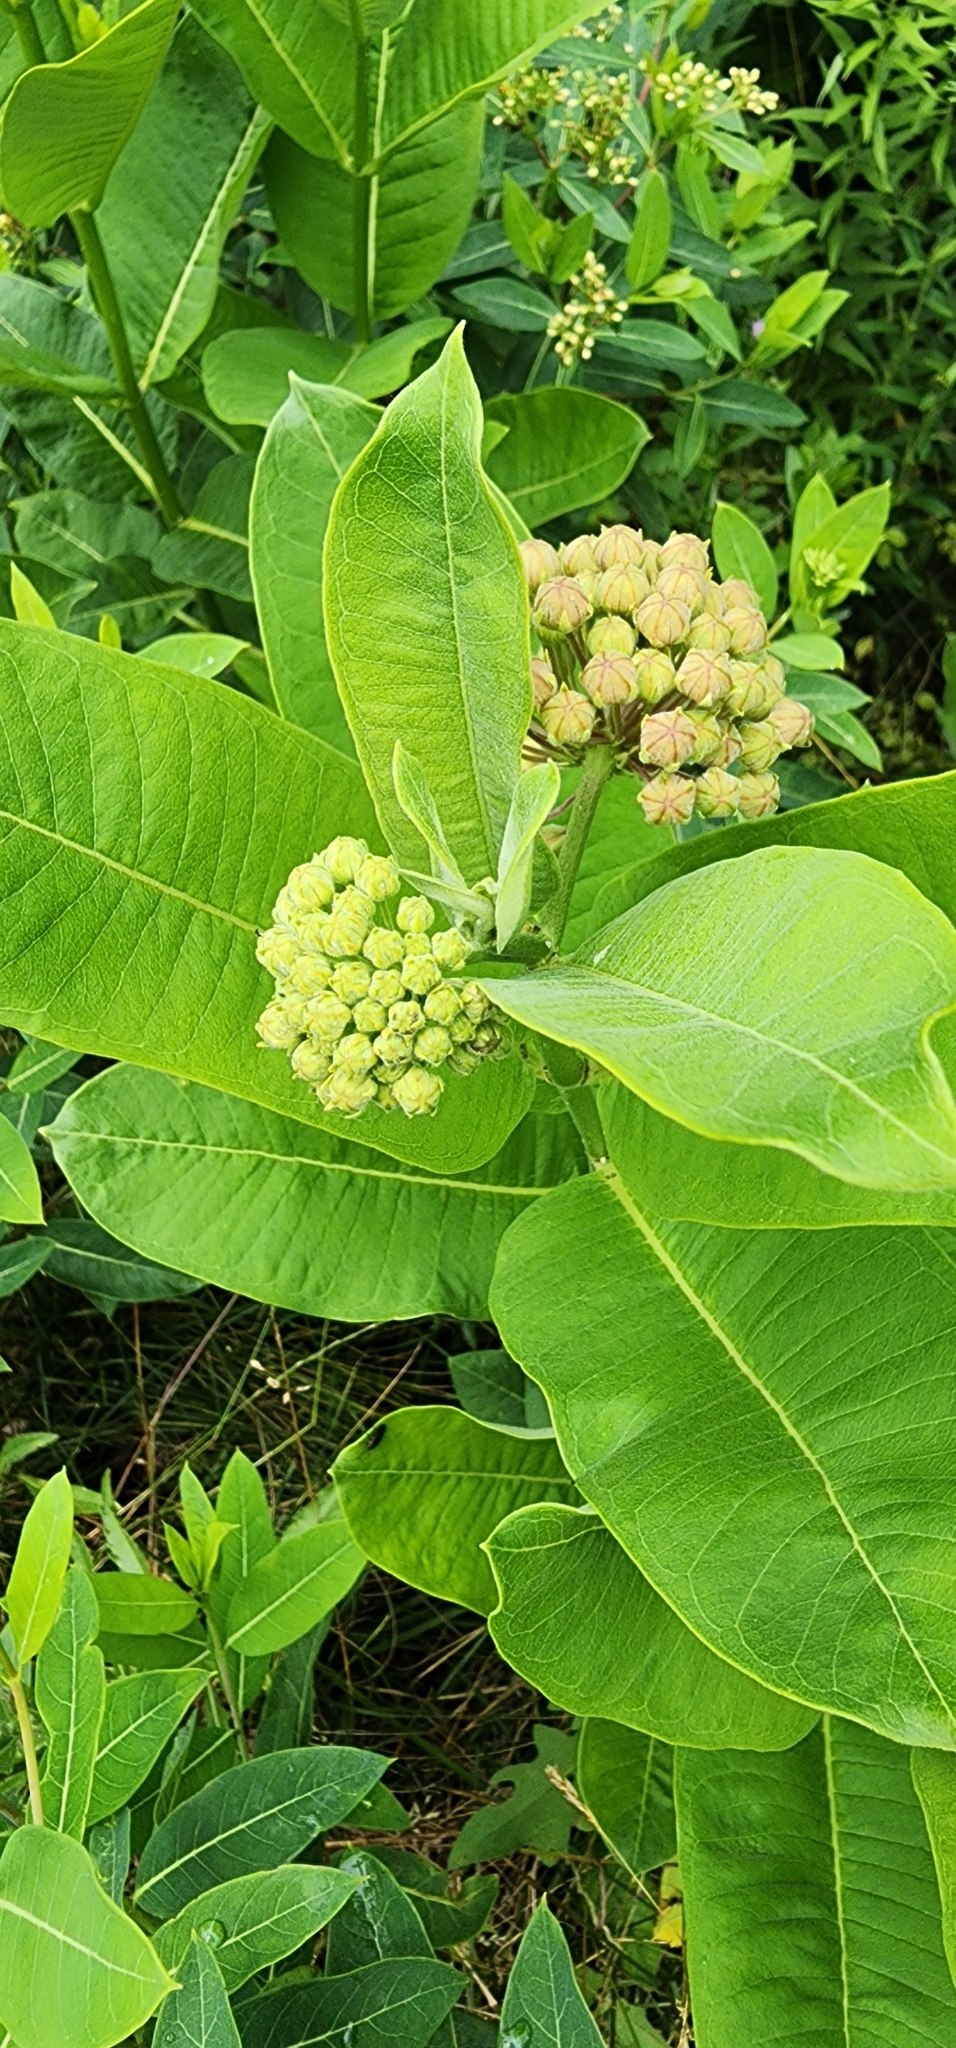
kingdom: Plantae
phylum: Tracheophyta
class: Magnoliopsida
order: Gentianales
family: Apocynaceae
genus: Asclepias
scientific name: Asclepias syriaca
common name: Common milkweed
